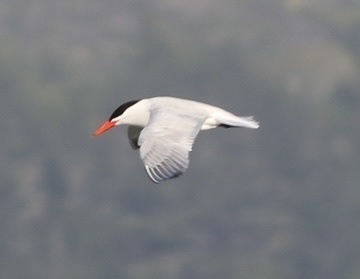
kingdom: Animalia
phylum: Chordata
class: Aves
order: Charadriiformes
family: Laridae
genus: Hydroprogne
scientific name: Hydroprogne caspia
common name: Caspian tern
